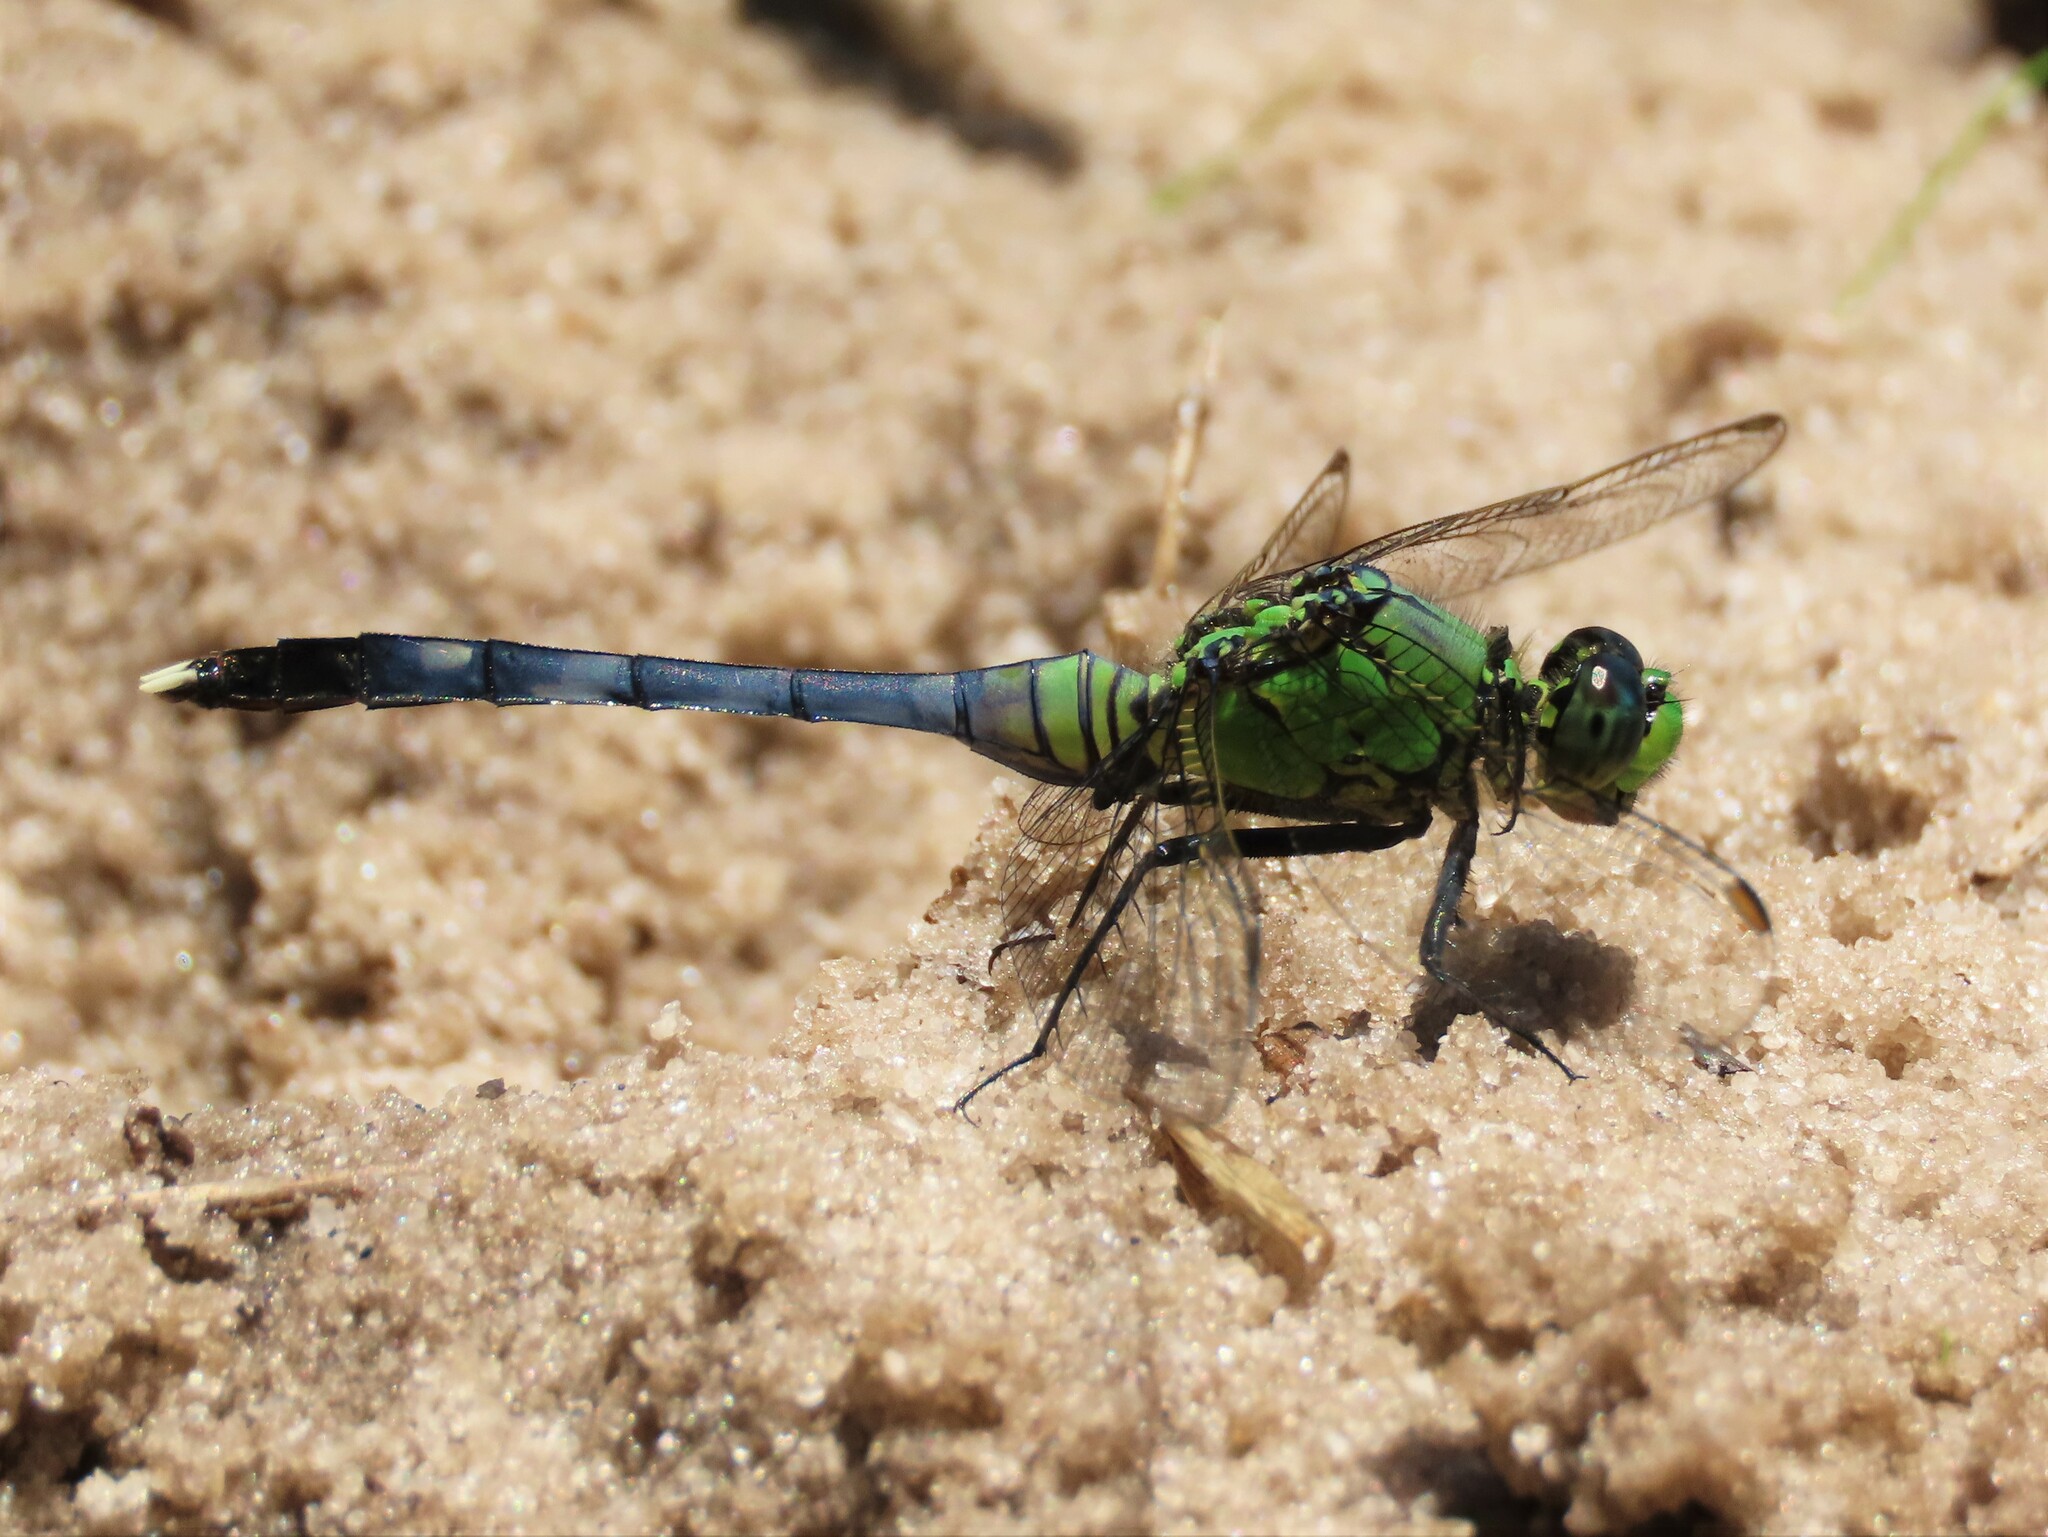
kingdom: Animalia
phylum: Arthropoda
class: Insecta
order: Odonata
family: Libellulidae
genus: Erythemis
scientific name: Erythemis simplicicollis
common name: Eastern pondhawk
